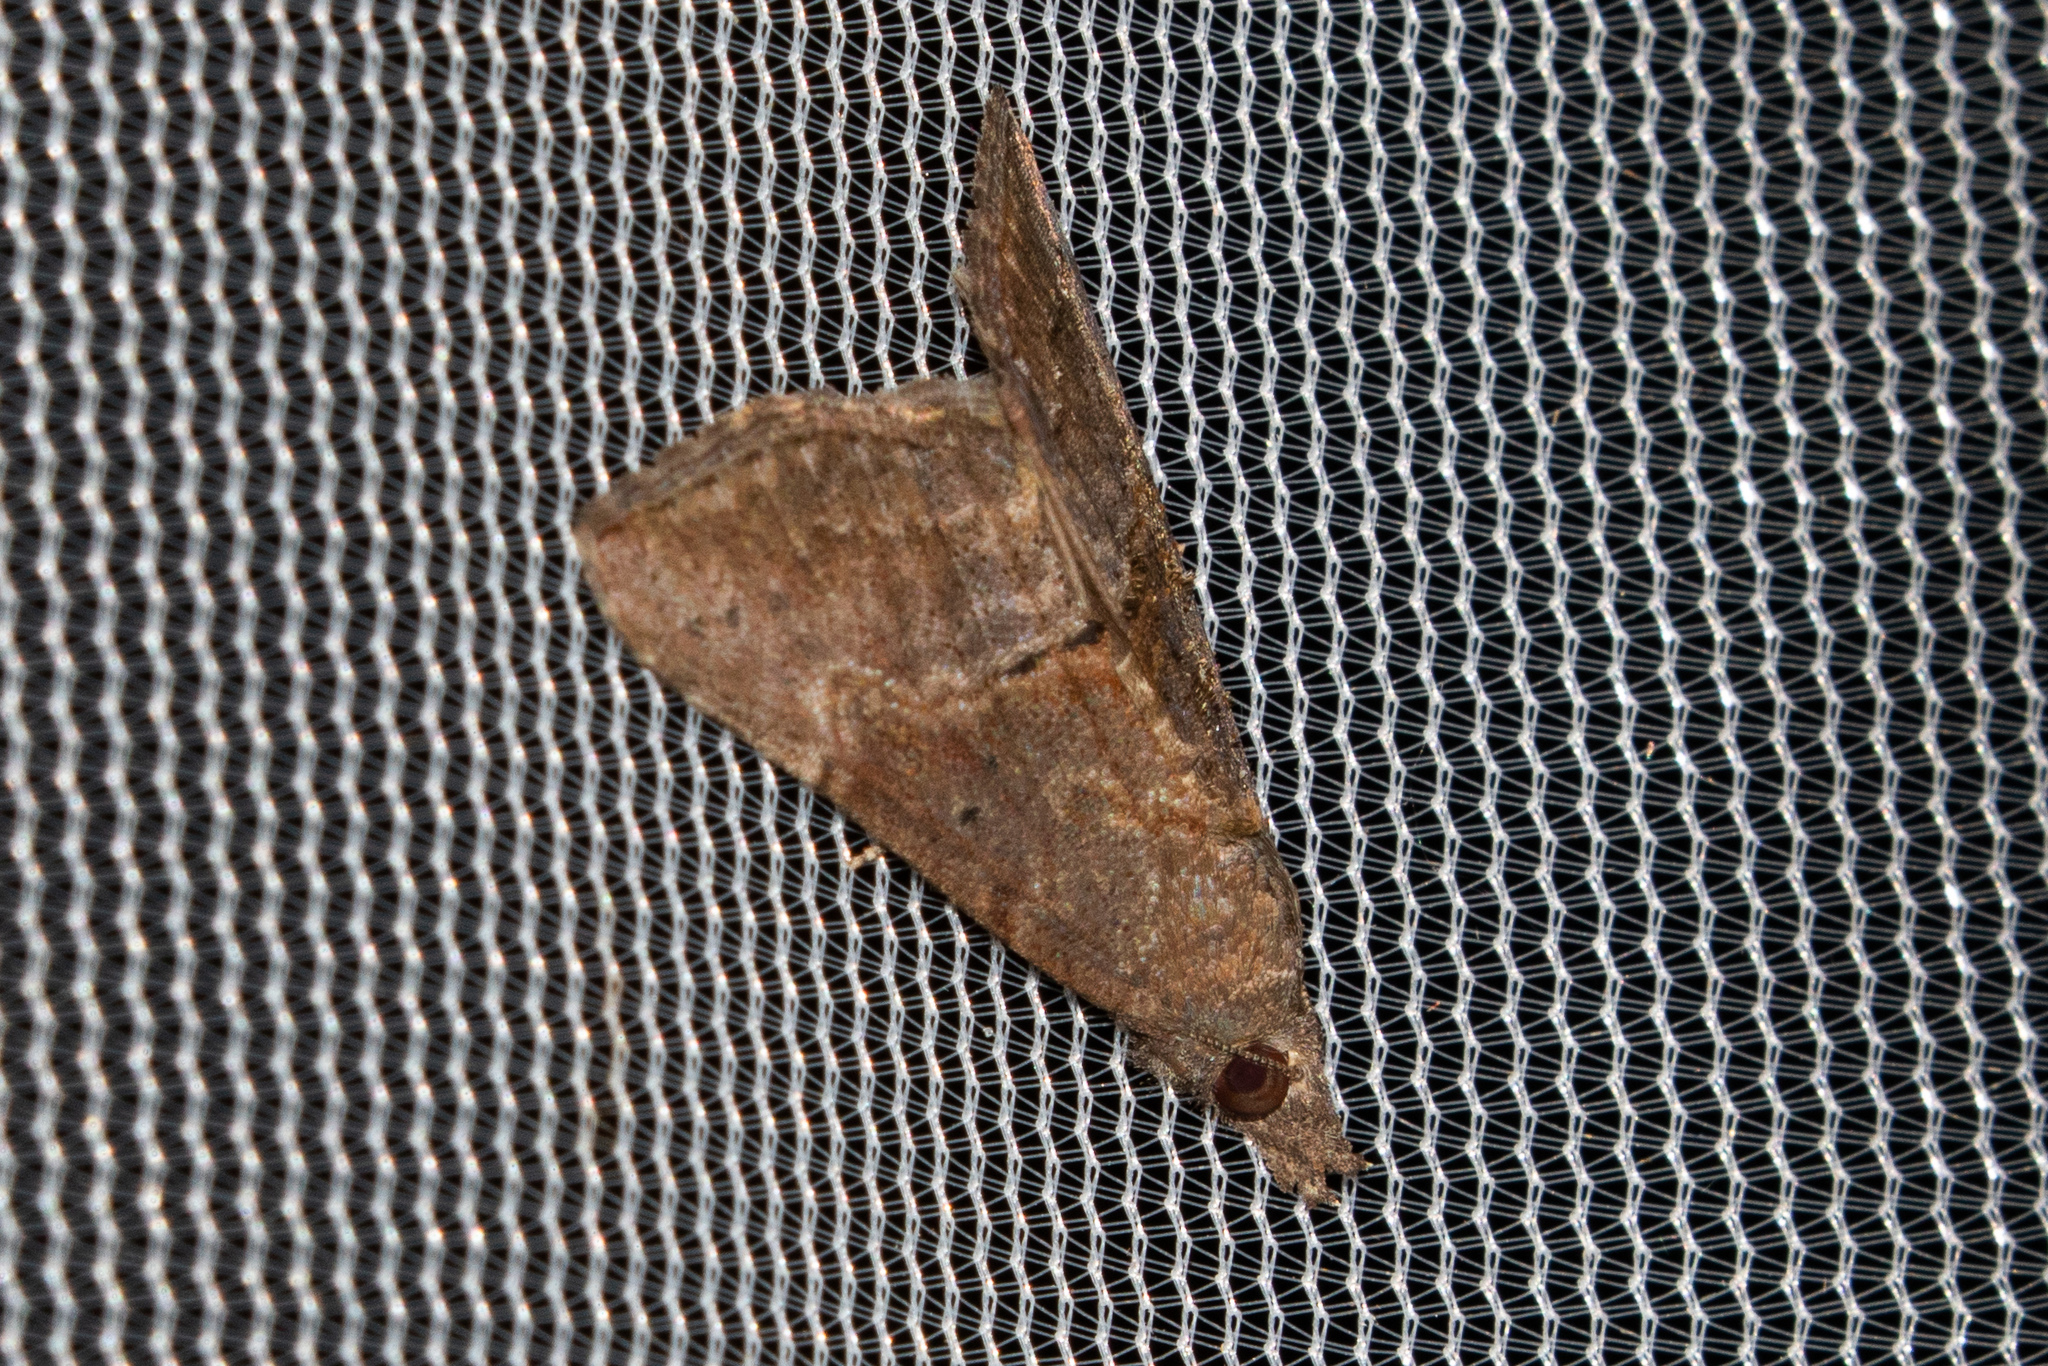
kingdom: Animalia
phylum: Arthropoda
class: Insecta
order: Lepidoptera
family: Erebidae
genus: Hypena
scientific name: Hypena scabra
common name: Green cloverworm
